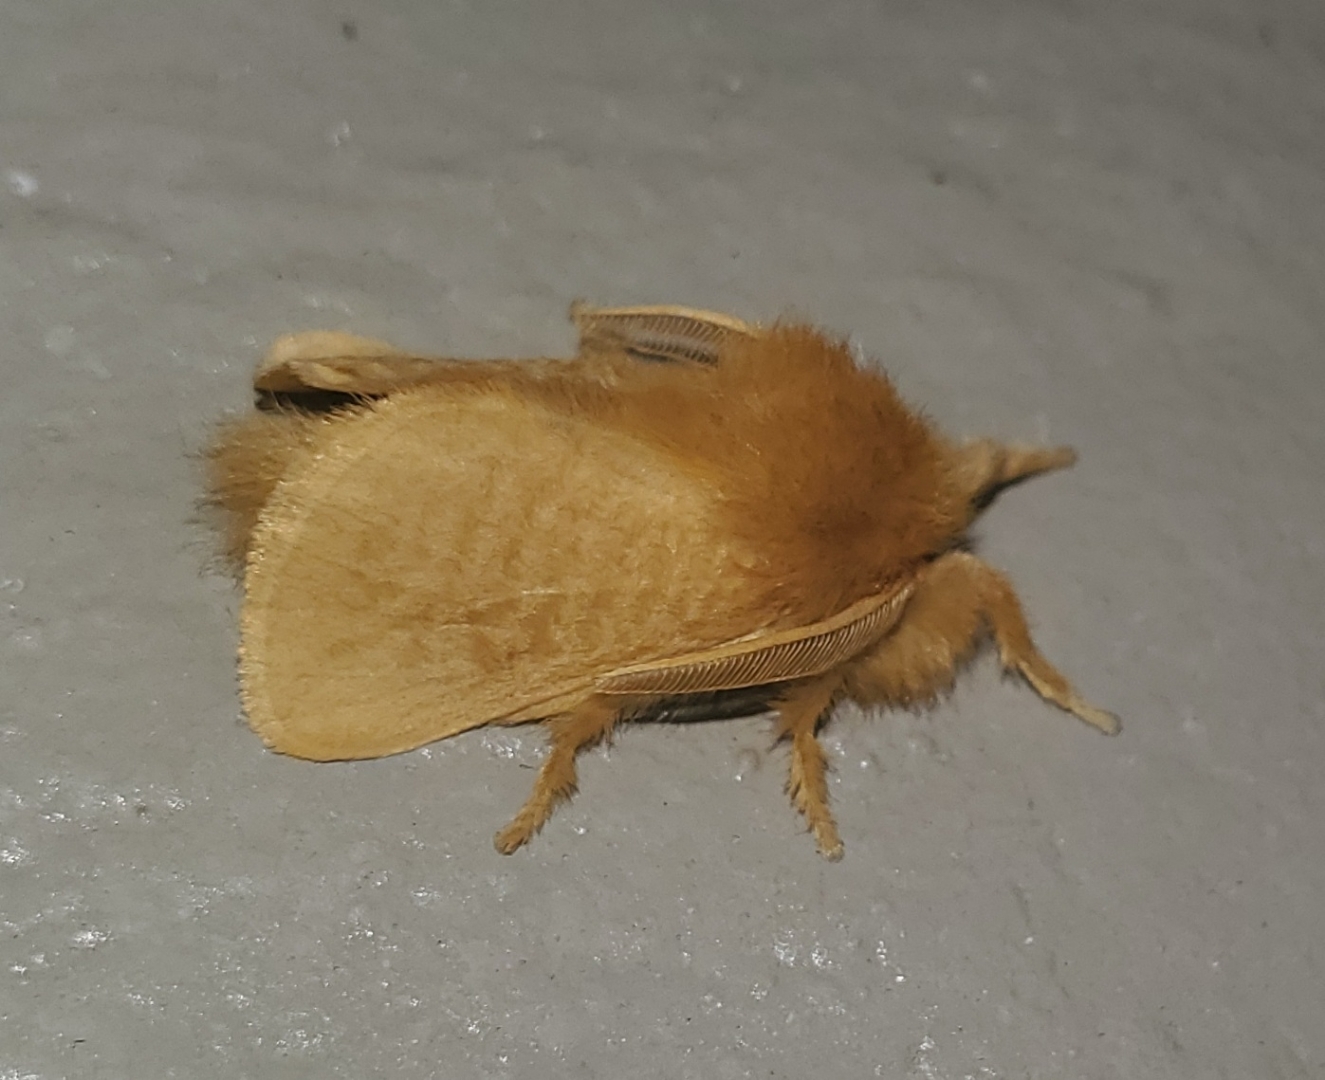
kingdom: Animalia
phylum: Arthropoda
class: Insecta
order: Lepidoptera
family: Megalopygidae
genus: Megalopyge
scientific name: Megalopyge pixidifera
